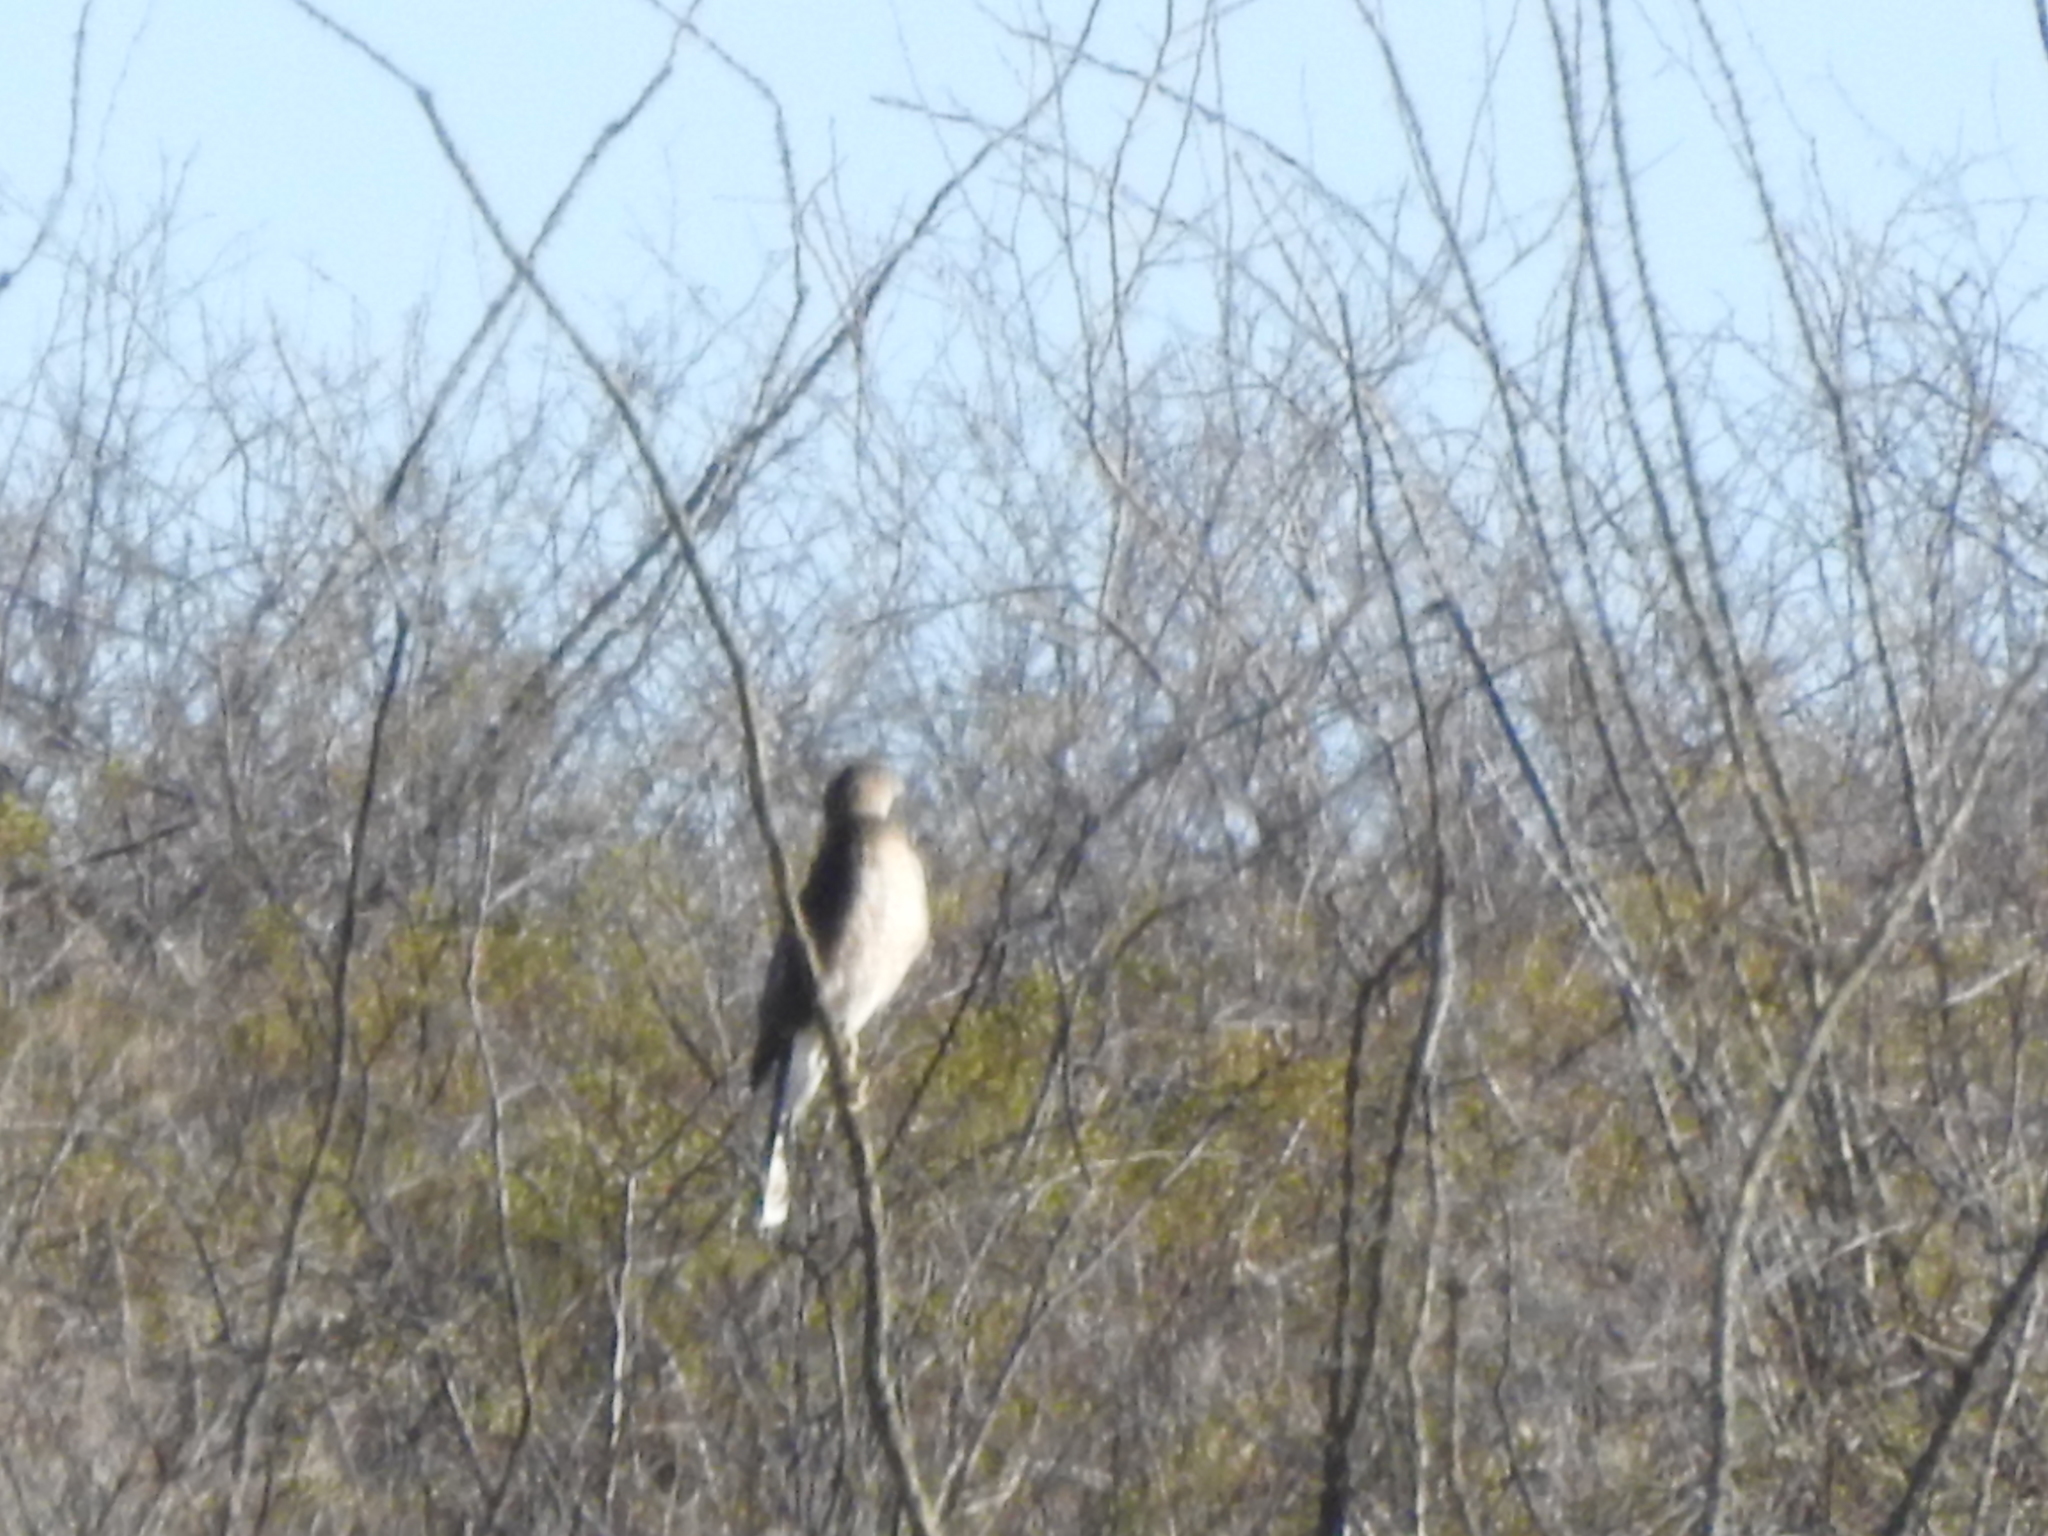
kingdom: Animalia
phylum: Chordata
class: Aves
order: Accipitriformes
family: Accipitridae
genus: Accipiter
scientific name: Accipiter cooperii
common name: Cooper's hawk
